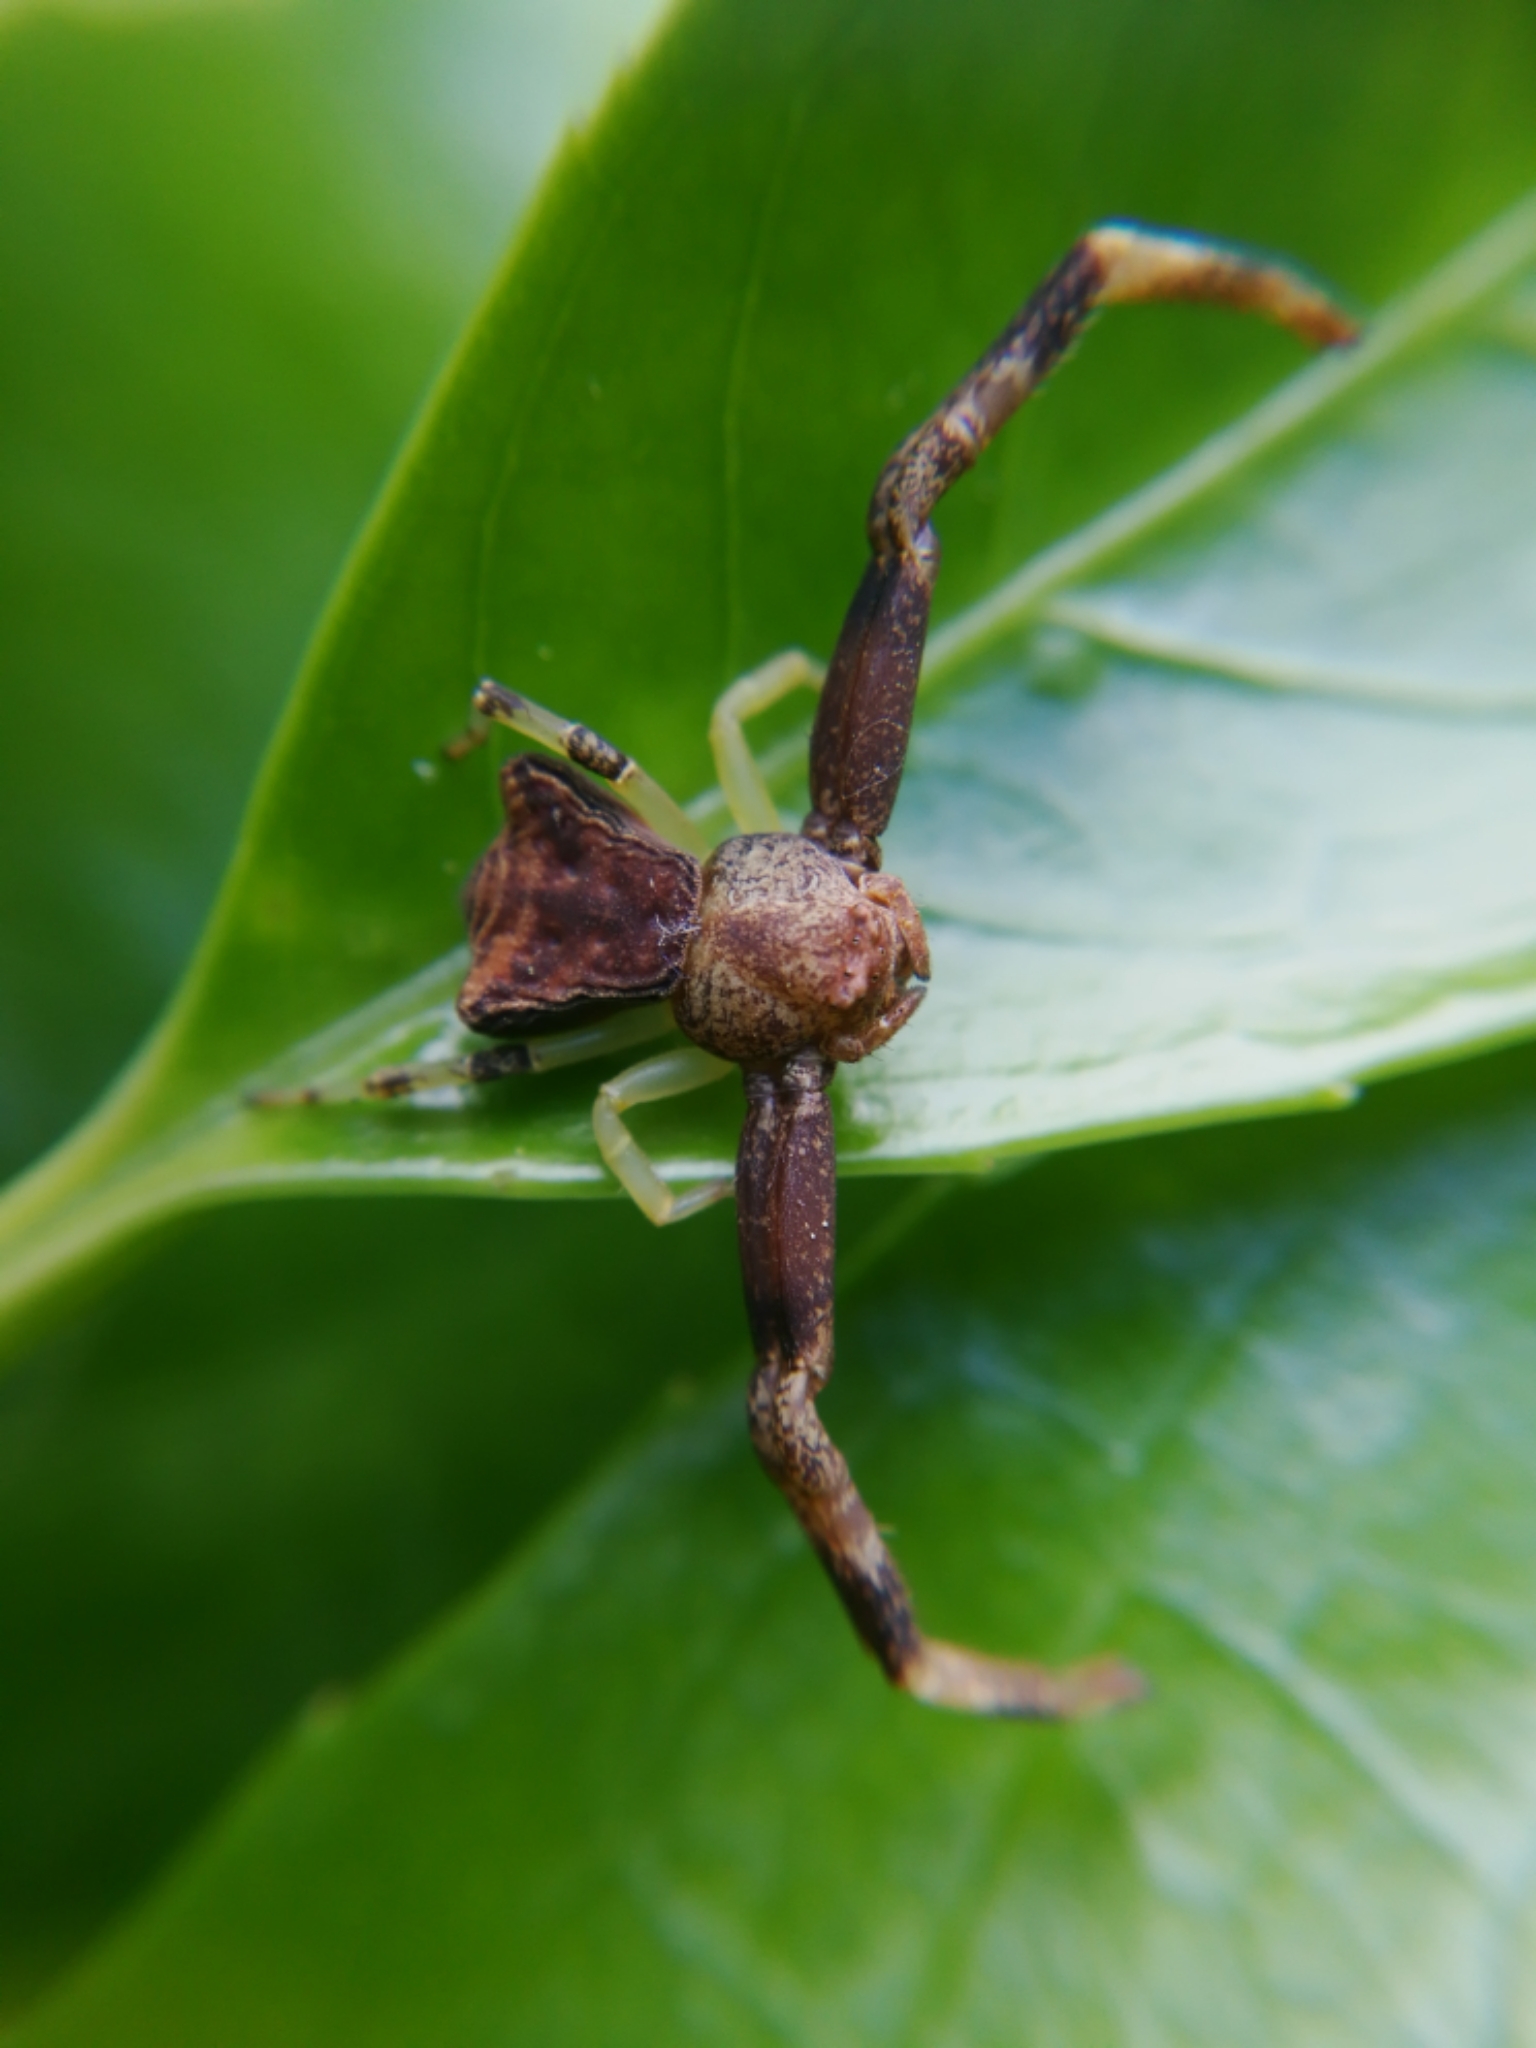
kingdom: Animalia
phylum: Arthropoda
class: Arachnida
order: Araneae
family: Thomisidae
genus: Pistius
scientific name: Pistius truncatus
